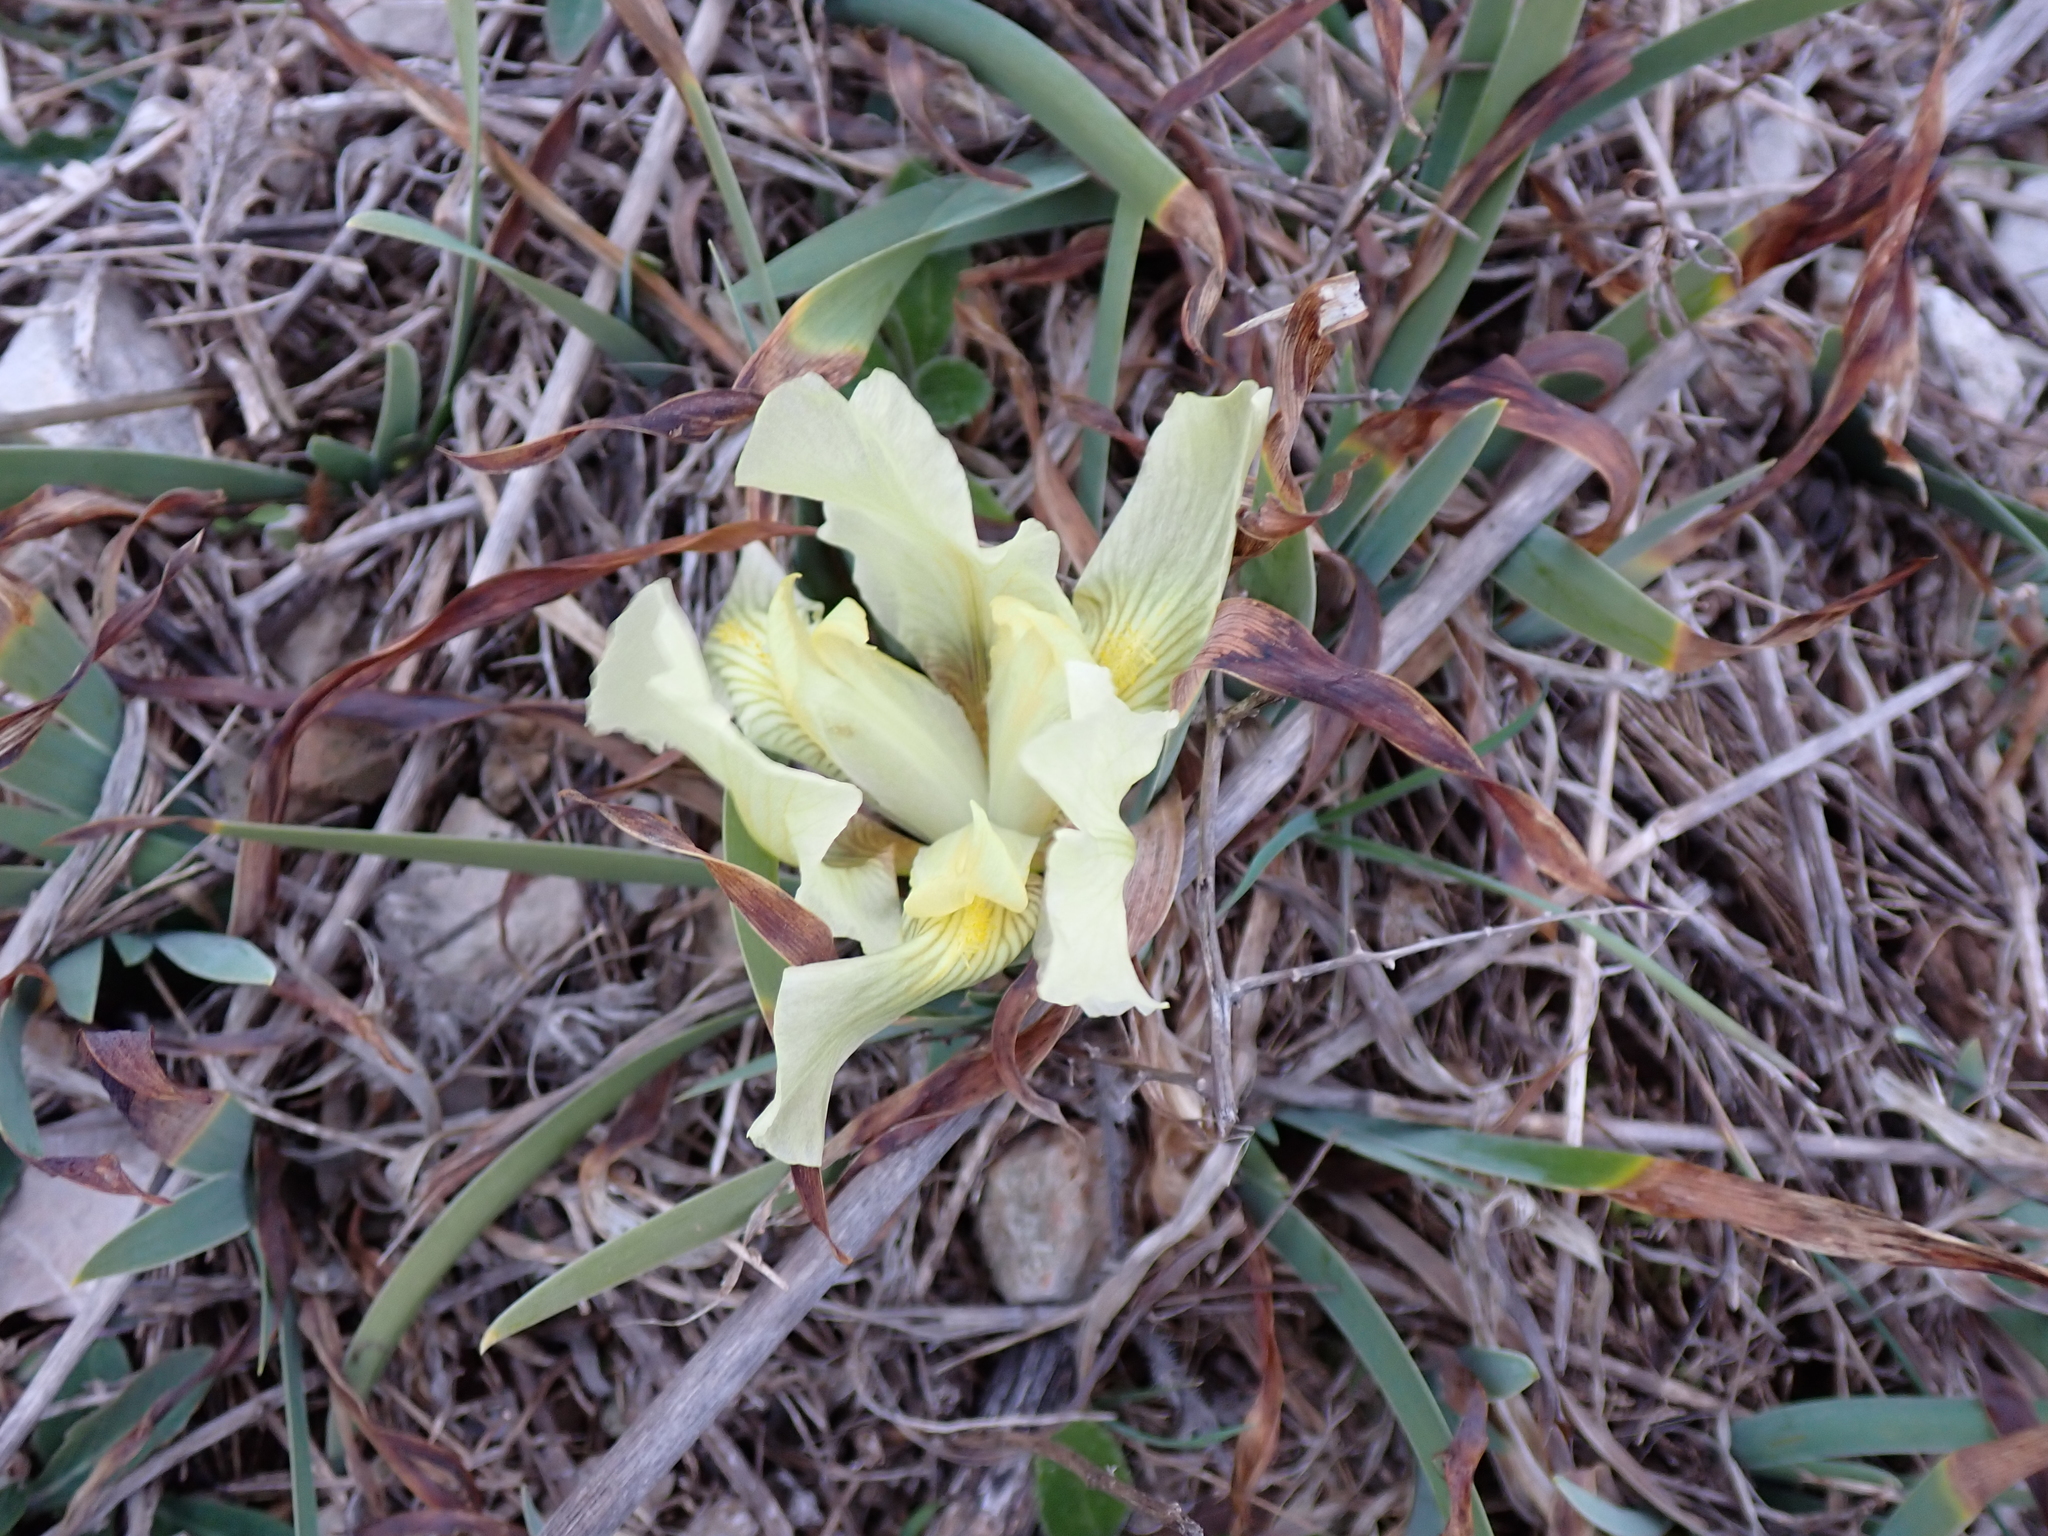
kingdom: Plantae
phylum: Tracheophyta
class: Liliopsida
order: Asparagales
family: Iridaceae
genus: Iris
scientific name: Iris lutescens
